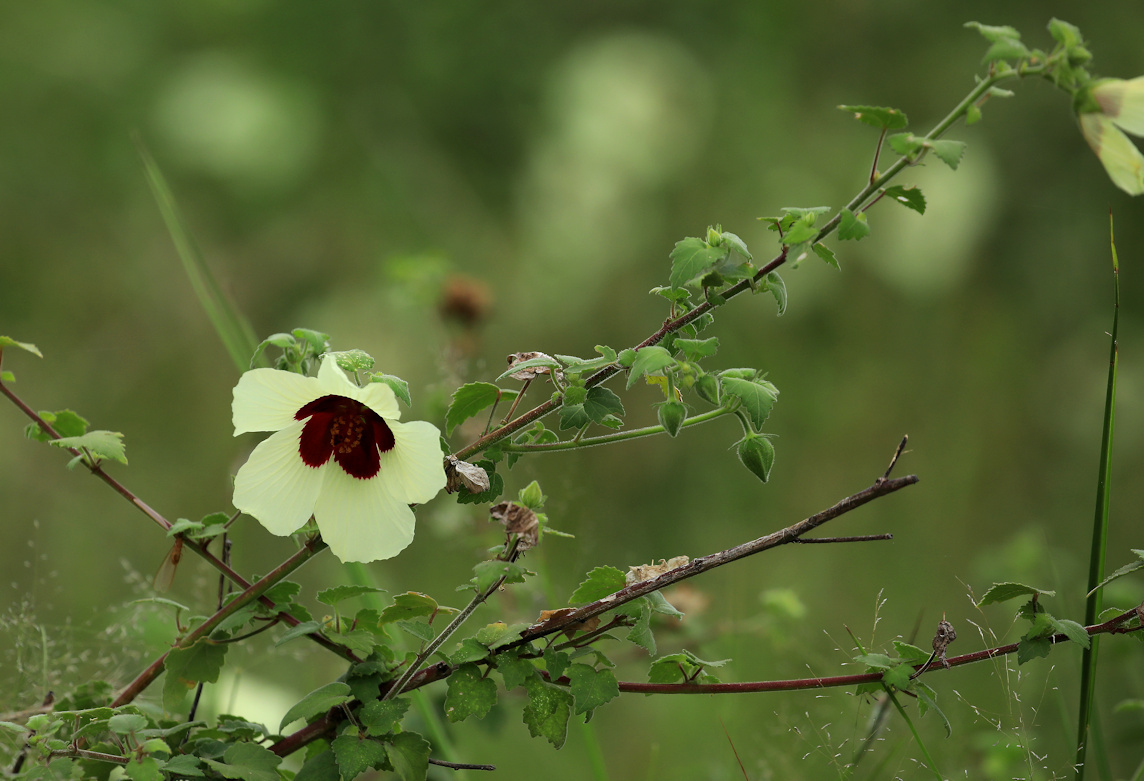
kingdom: Plantae
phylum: Tracheophyta
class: Magnoliopsida
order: Malvales
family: Malvaceae
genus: Hibiscus
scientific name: Hibiscus vitifolius
